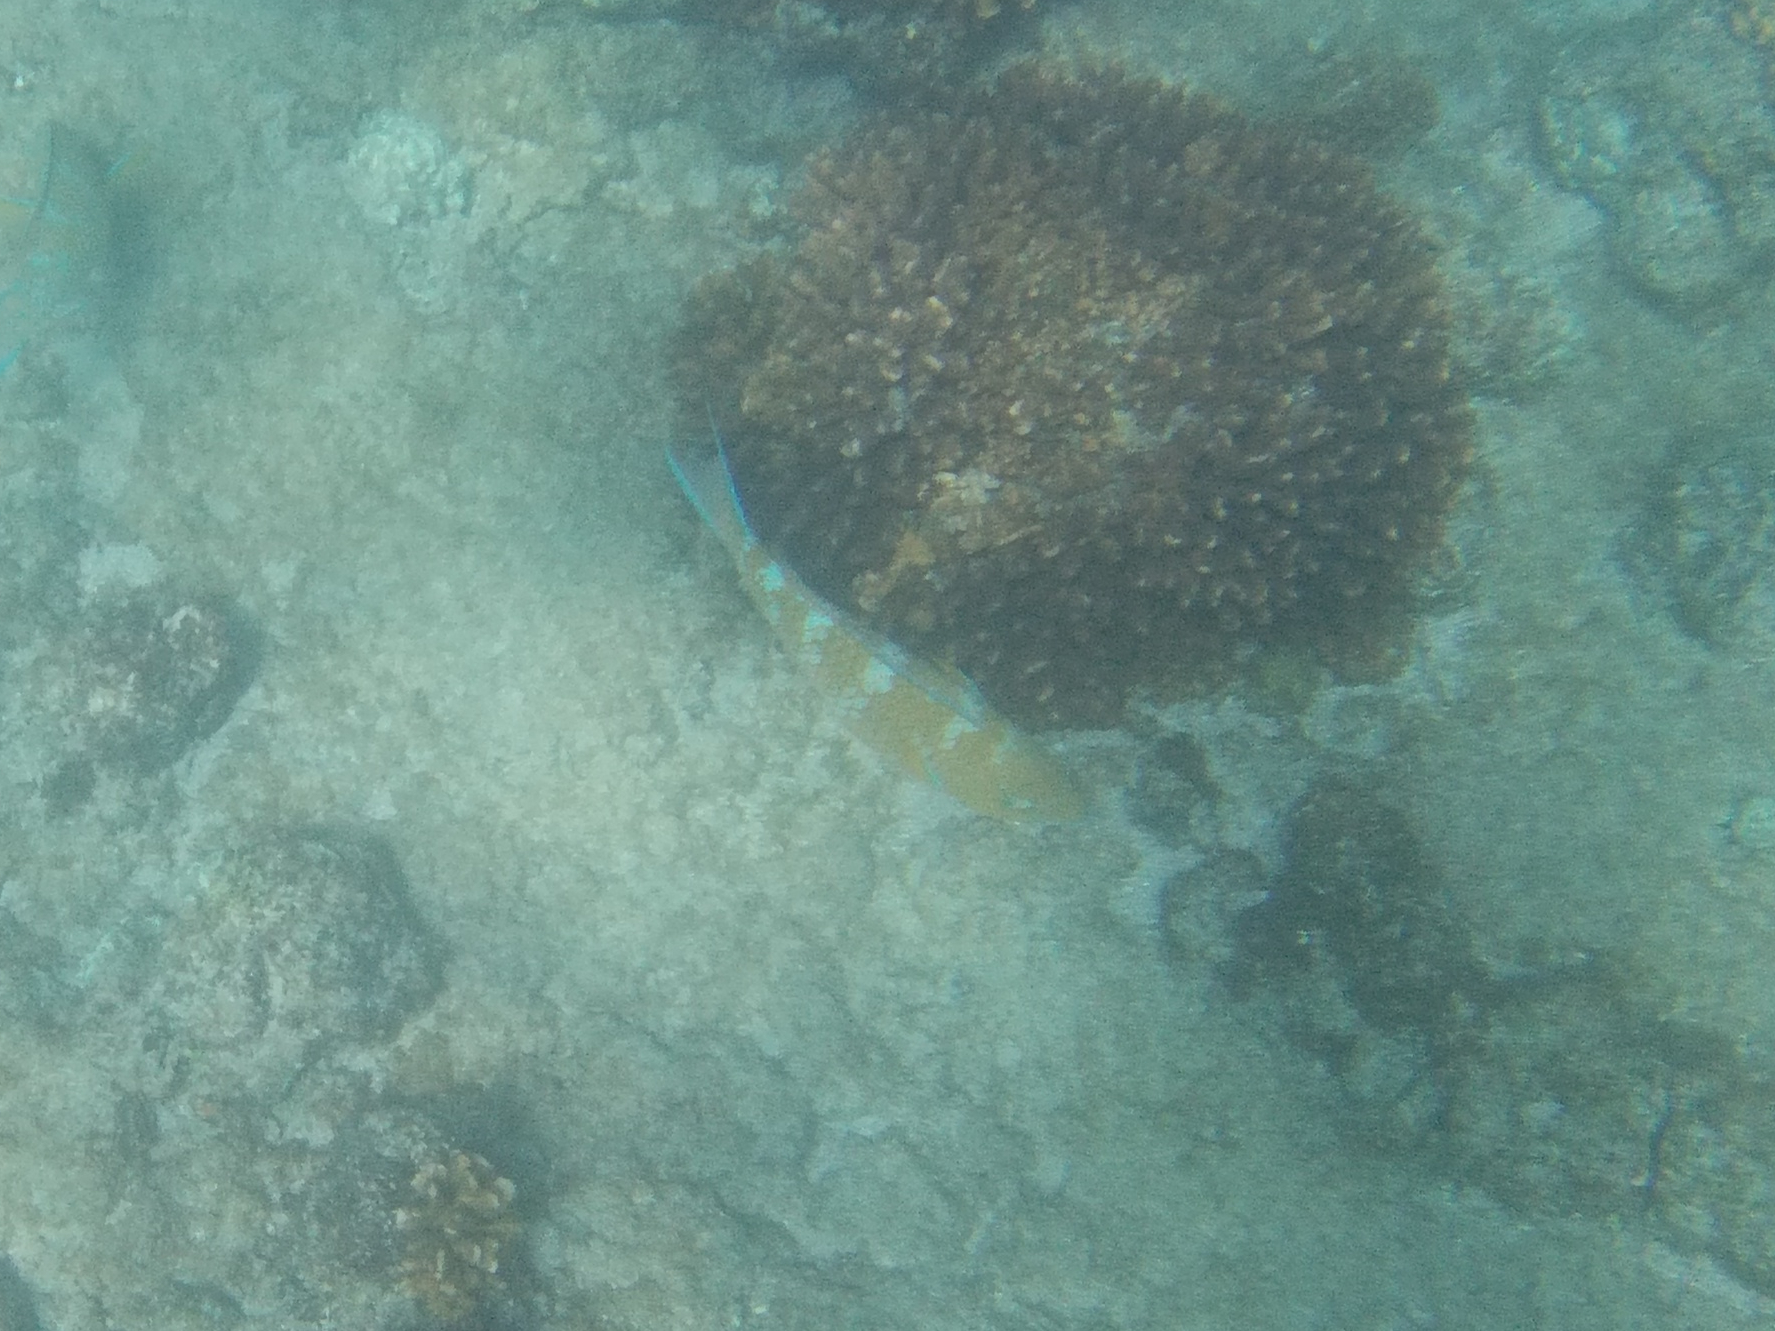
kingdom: Animalia
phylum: Chordata
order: Perciformes
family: Scaridae
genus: Scarus
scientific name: Scarus ghobban
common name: Blue-barred parrotfish
